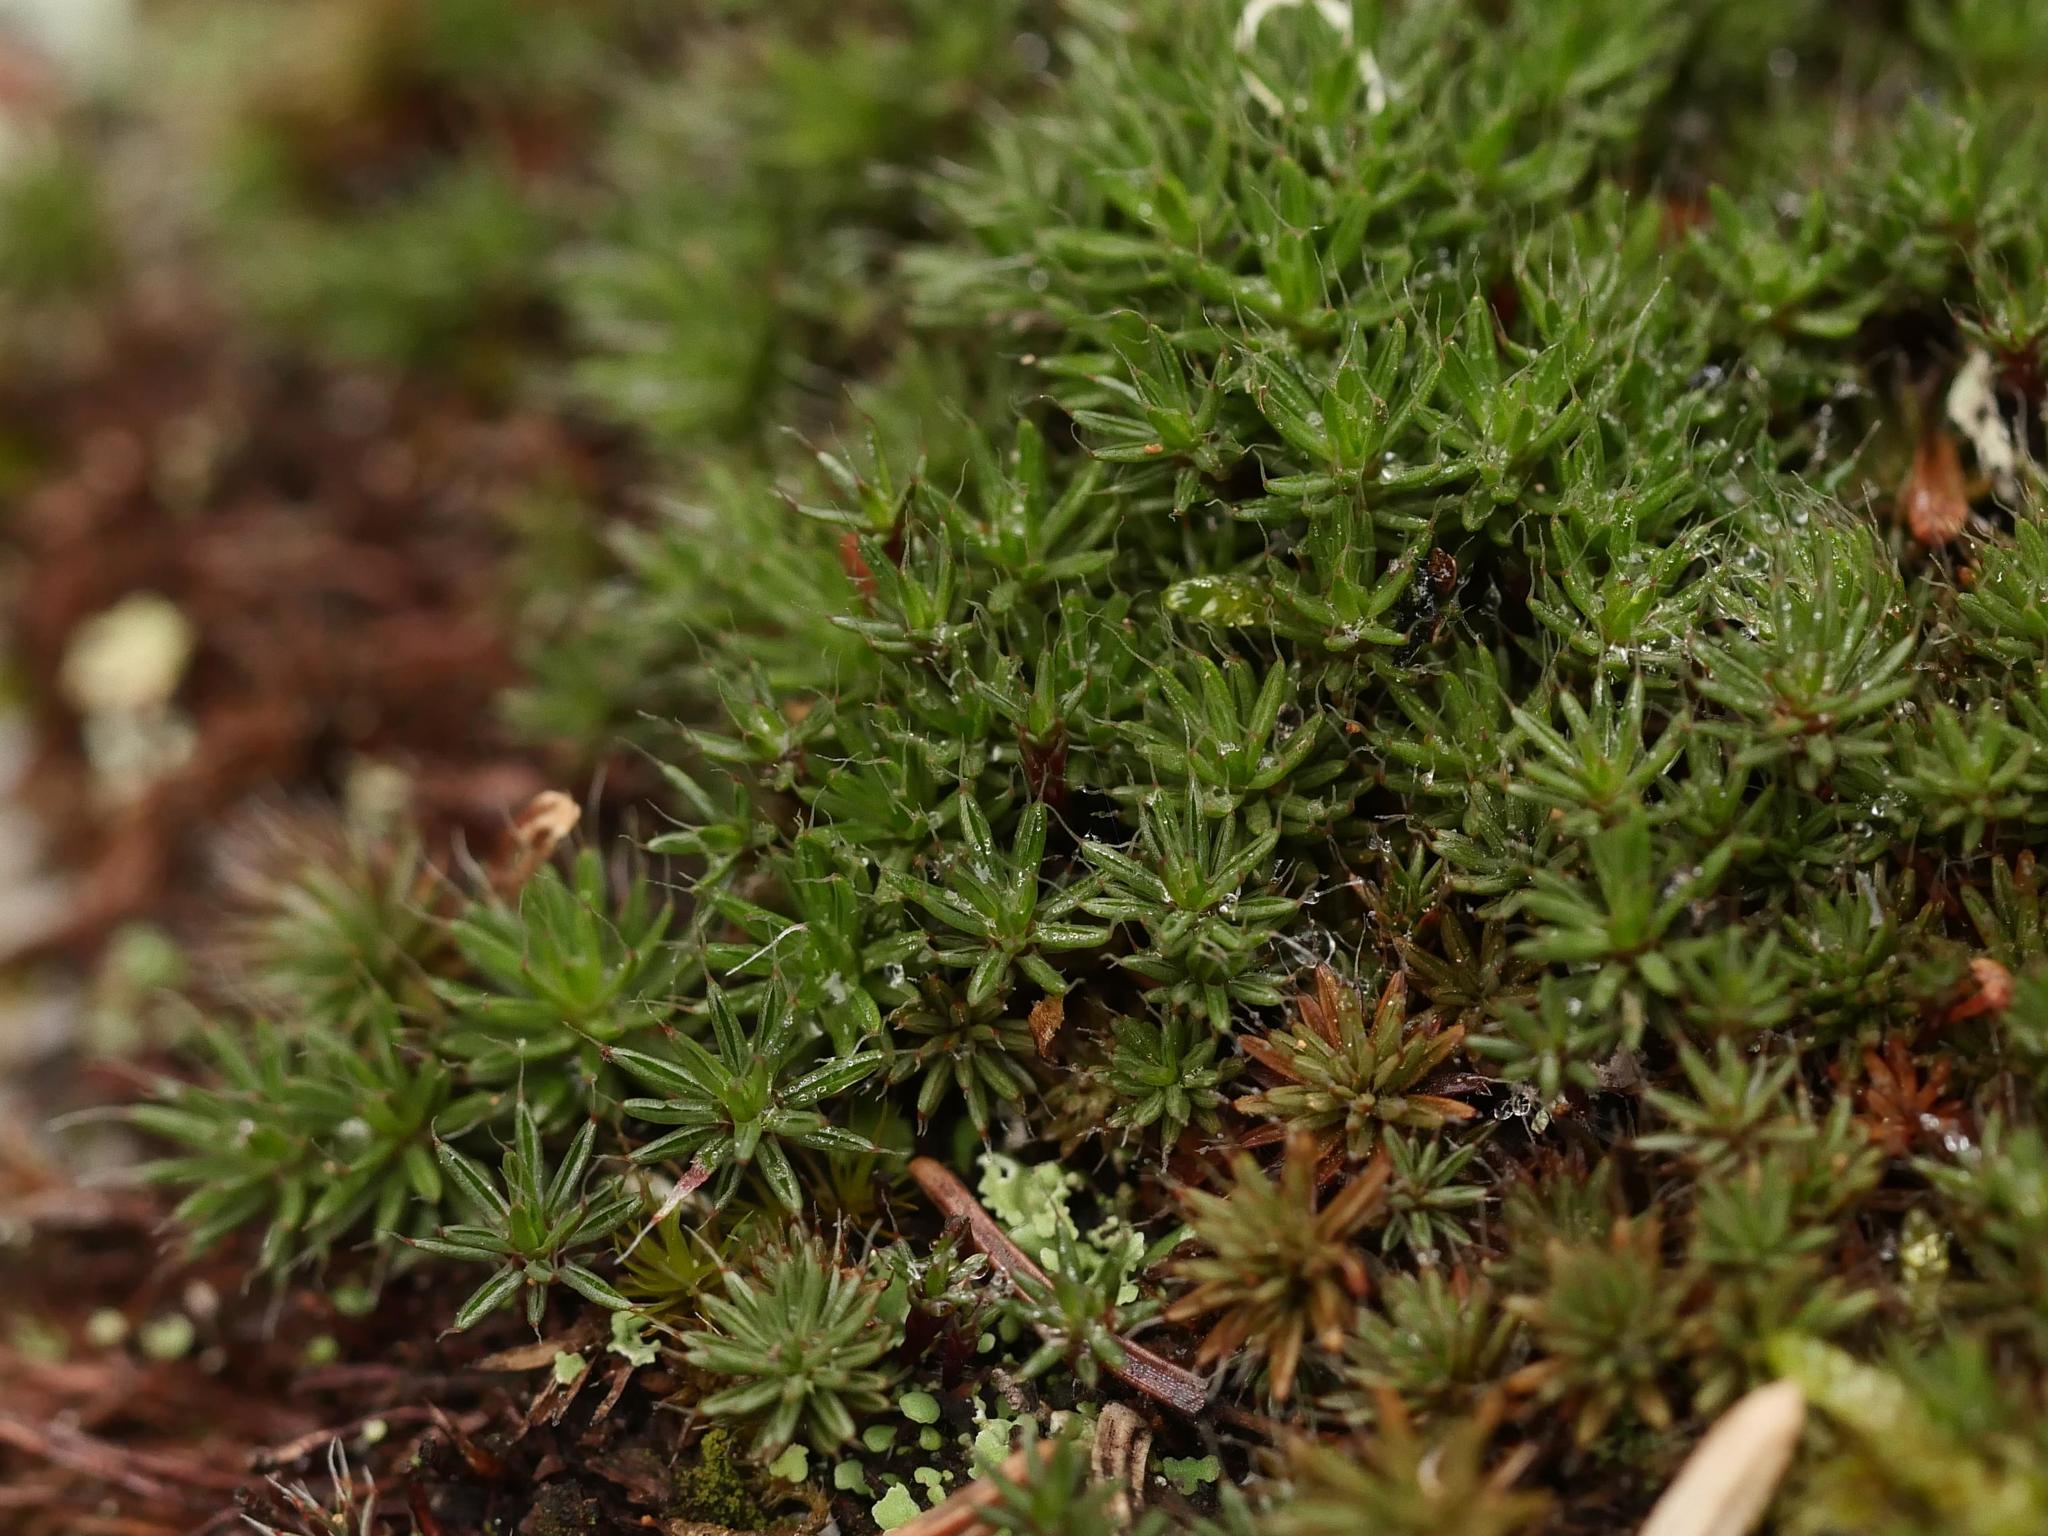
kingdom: Plantae
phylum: Bryophyta
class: Polytrichopsida
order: Polytrichales
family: Polytrichaceae
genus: Polytrichum
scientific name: Polytrichum piliferum
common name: Bristly haircap
